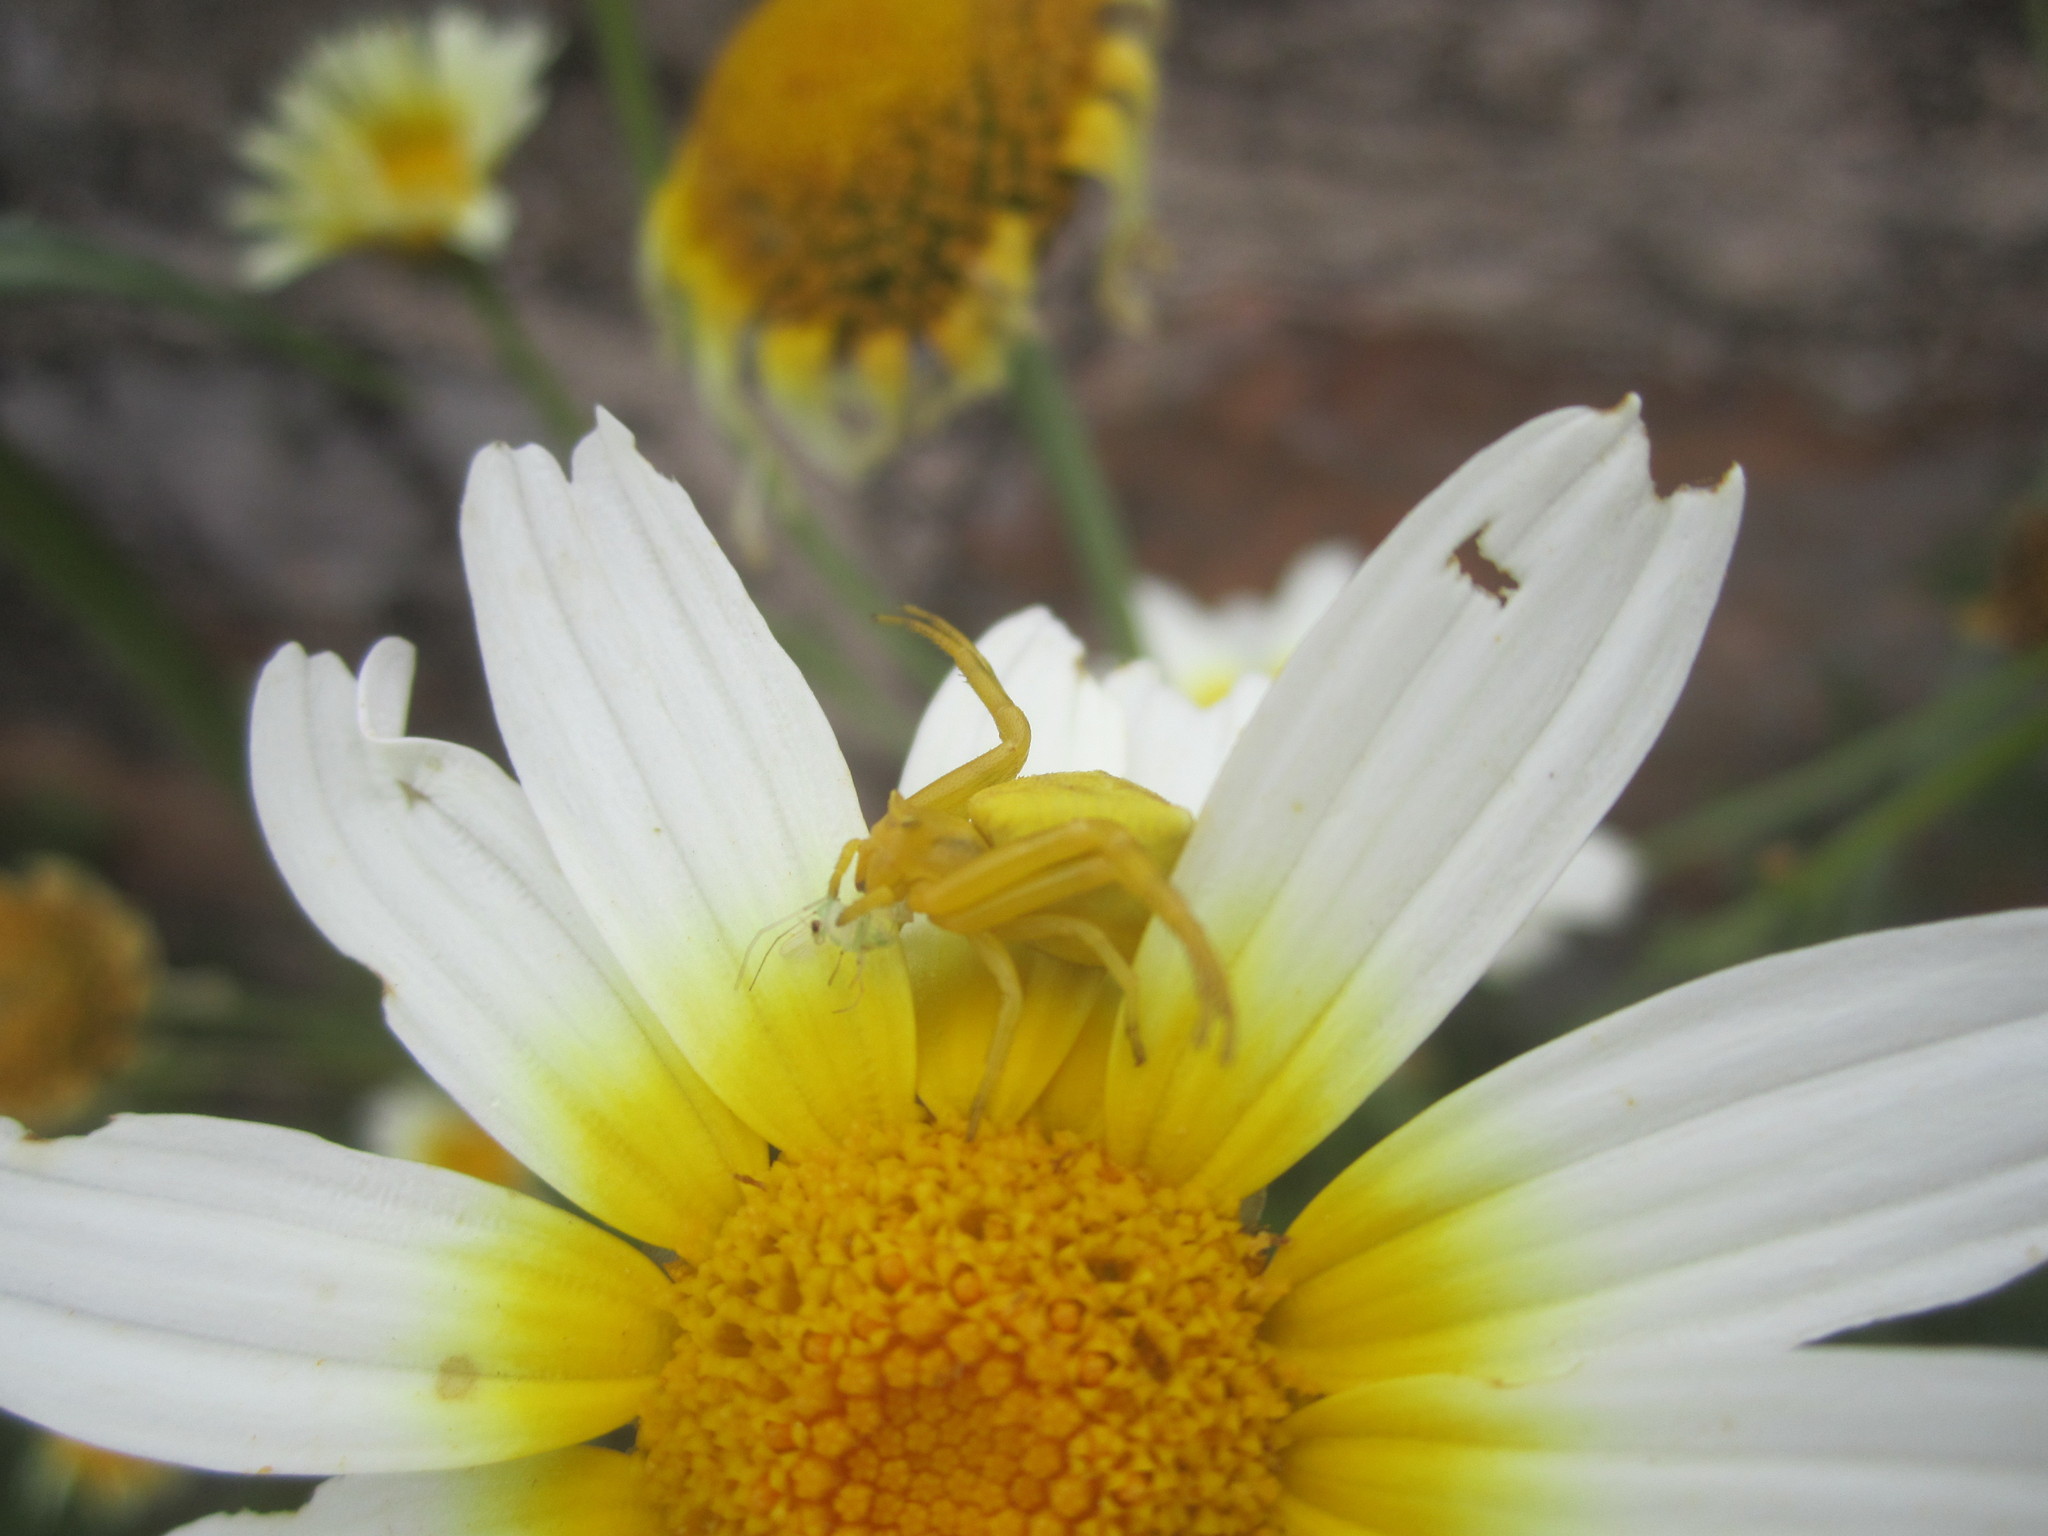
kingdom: Animalia
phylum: Arthropoda
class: Arachnida
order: Araneae
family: Thomisidae
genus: Thomisus
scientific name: Thomisus onustus
